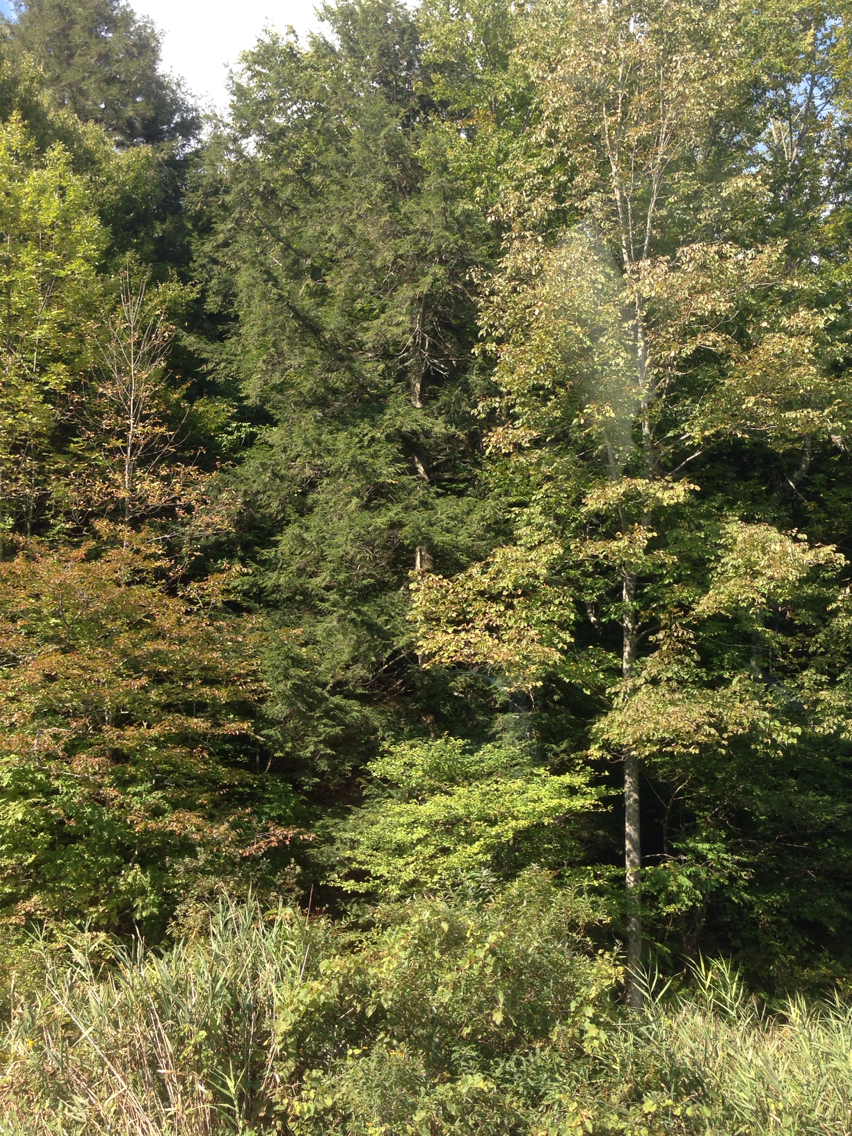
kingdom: Plantae
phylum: Tracheophyta
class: Pinopsida
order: Pinales
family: Pinaceae
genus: Tsuga
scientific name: Tsuga canadensis
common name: Eastern hemlock
